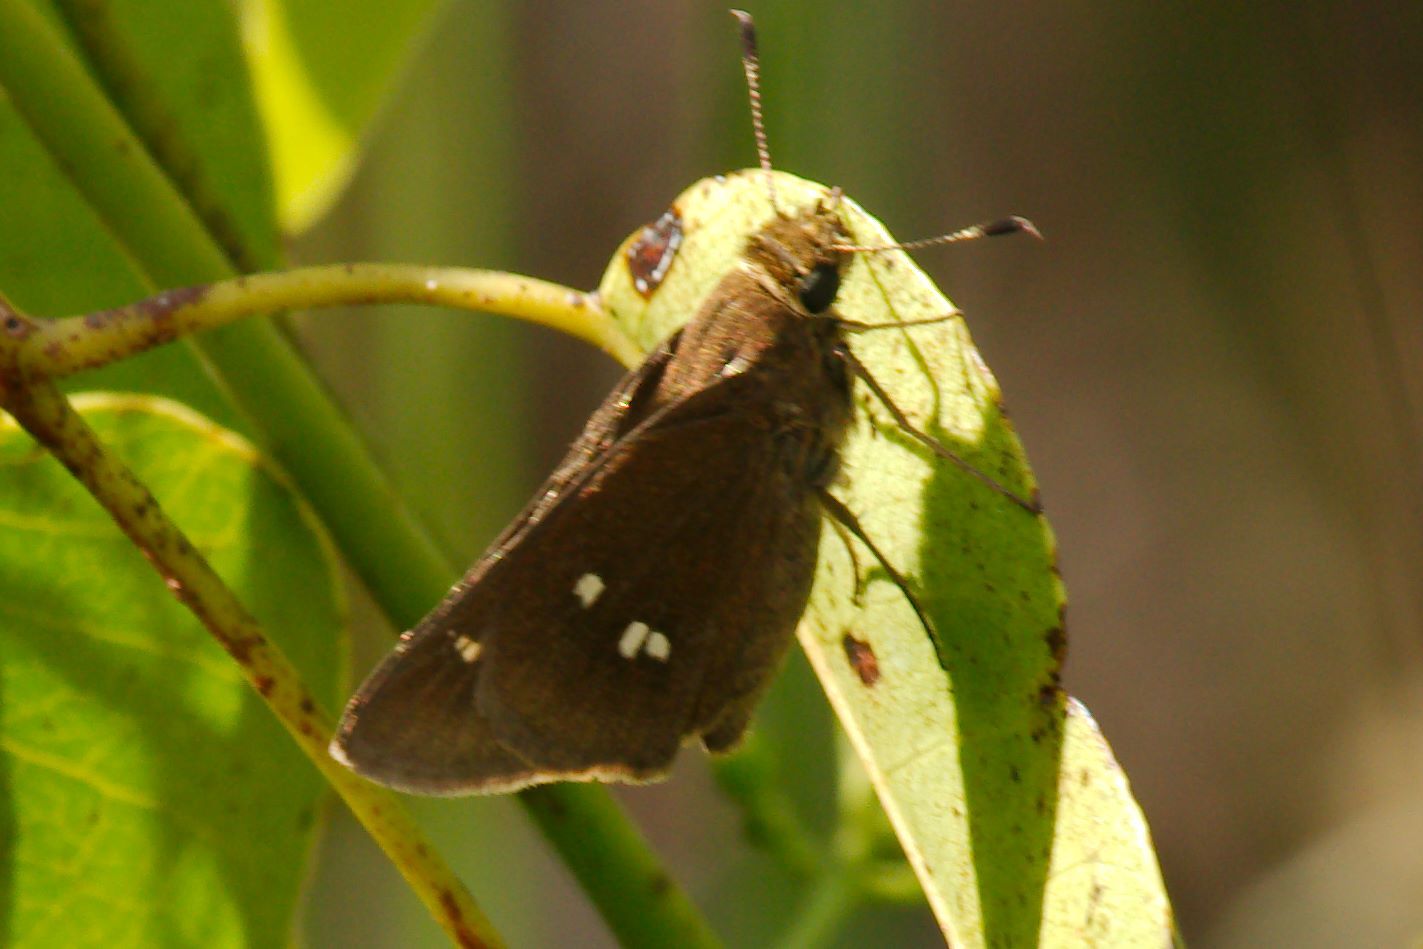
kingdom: Animalia
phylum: Arthropoda
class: Insecta
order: Lepidoptera
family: Hesperiidae
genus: Oligoria
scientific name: Oligoria maculata
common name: Twin-spot skipper
